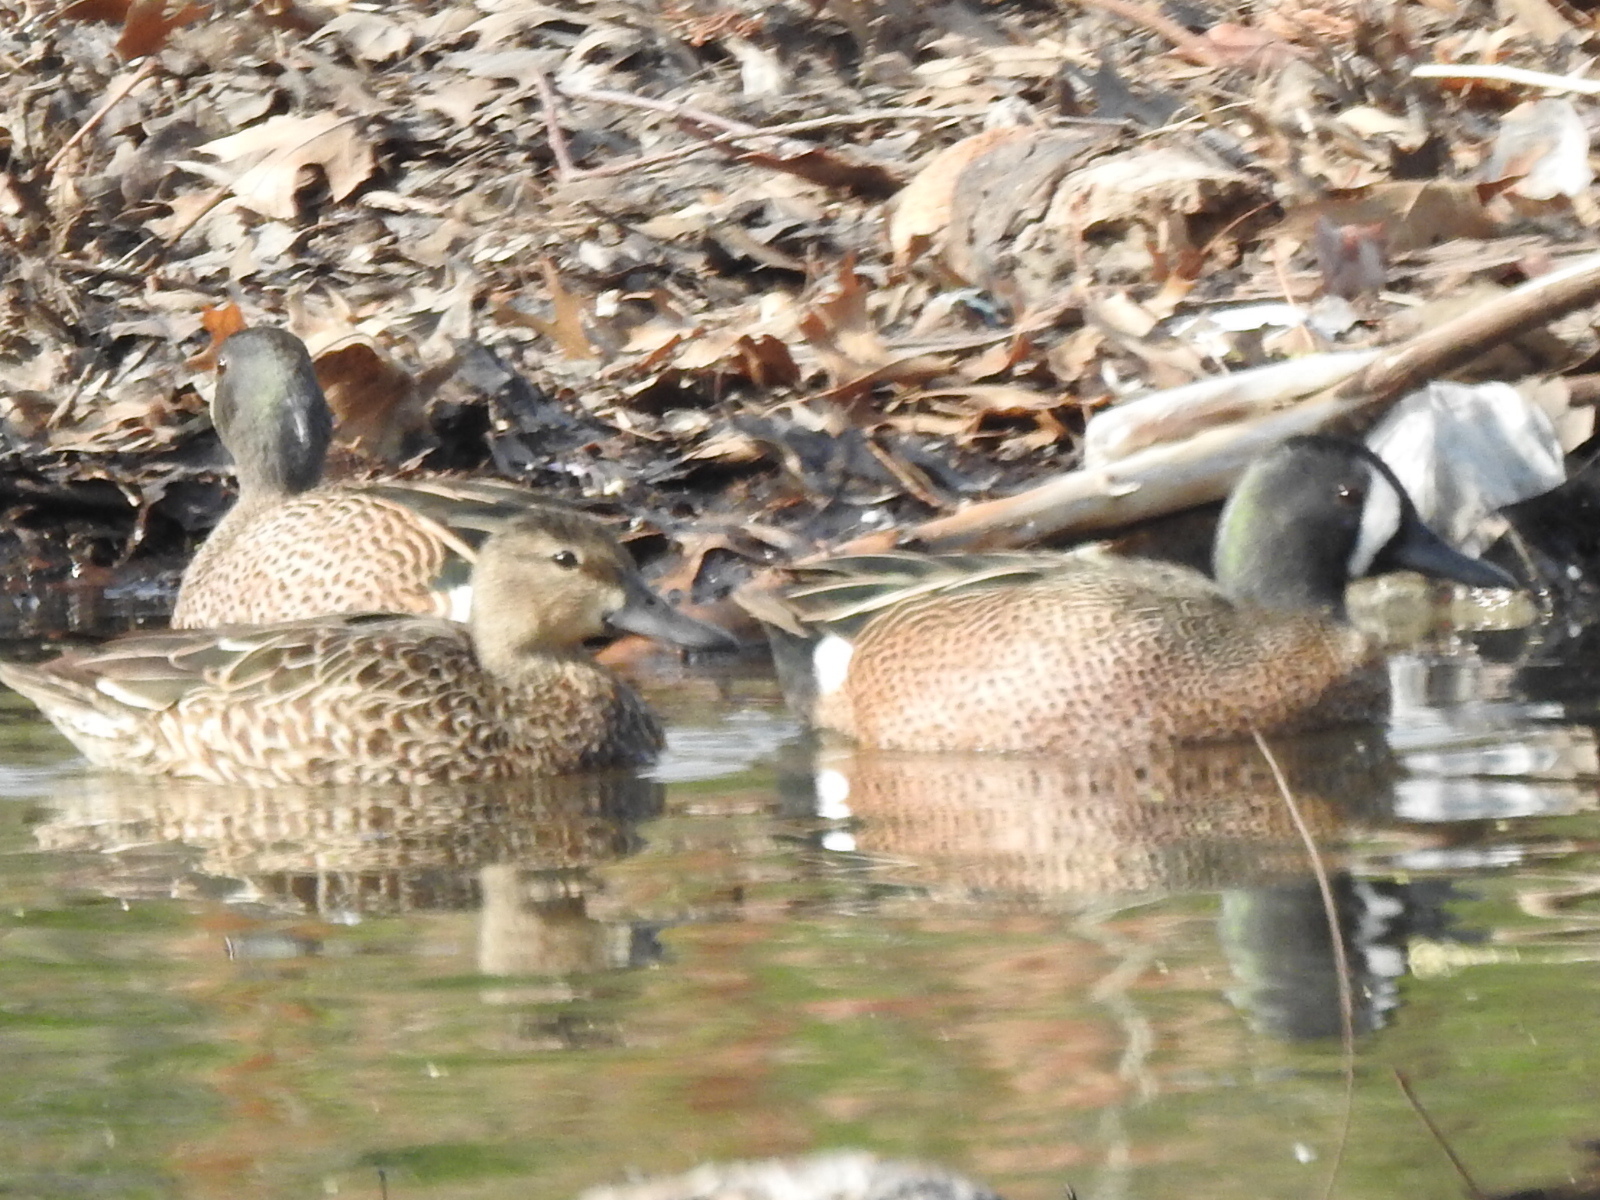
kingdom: Animalia
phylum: Chordata
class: Aves
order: Anseriformes
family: Anatidae
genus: Spatula
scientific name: Spatula discors
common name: Blue-winged teal
